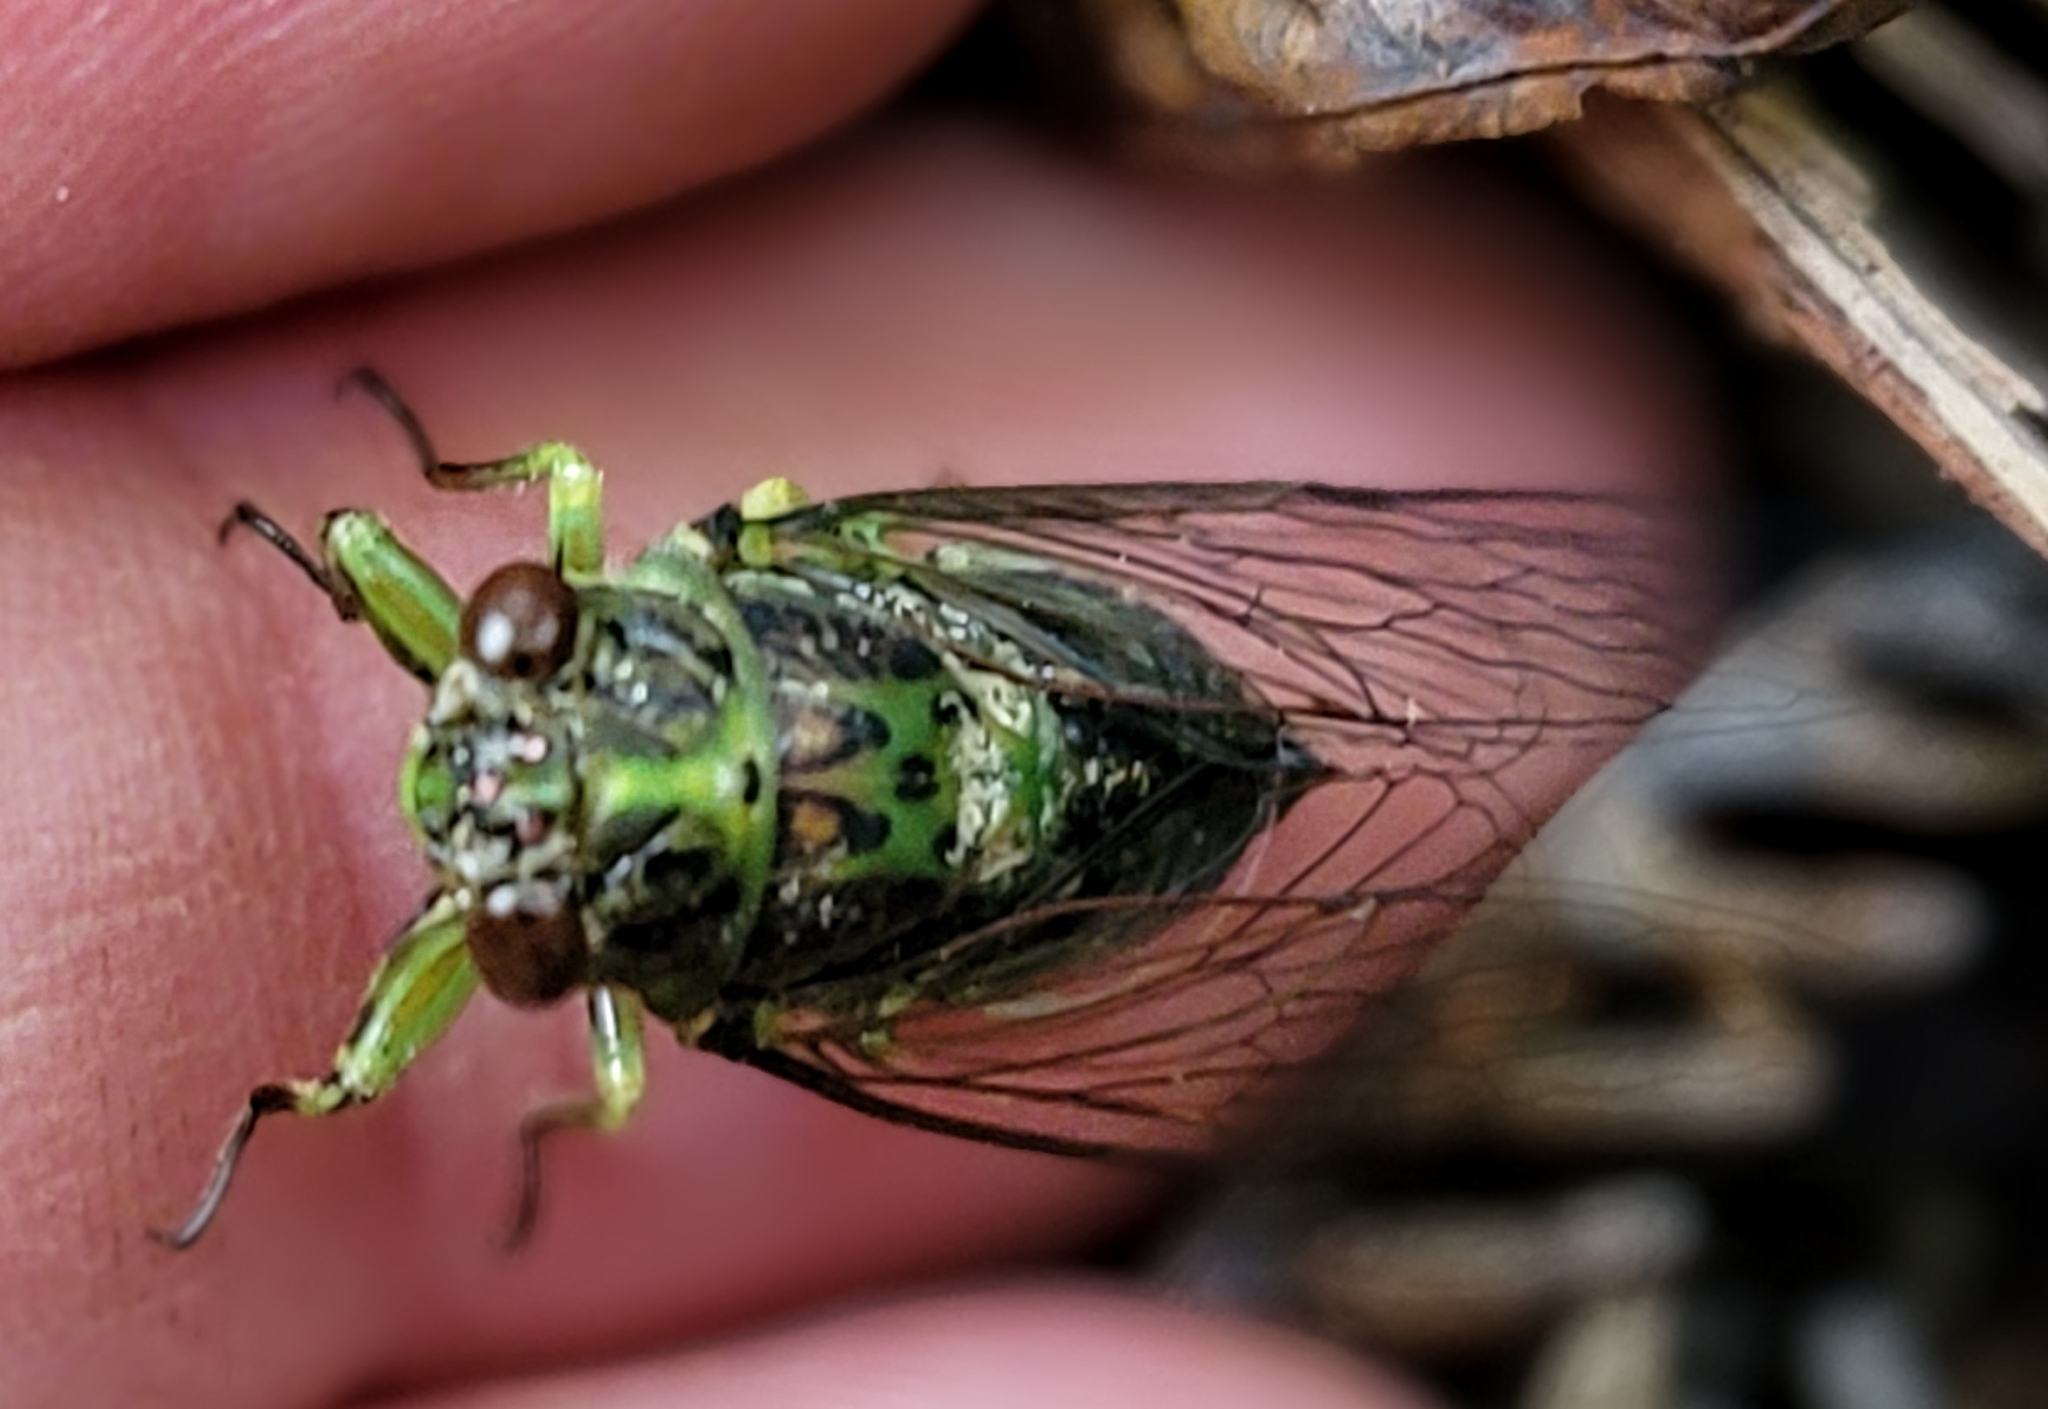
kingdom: Animalia
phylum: Arthropoda
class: Insecta
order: Hemiptera
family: Cicadidae
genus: Kikihia
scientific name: Kikihia scutellaris
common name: Lesser bronze cicada
